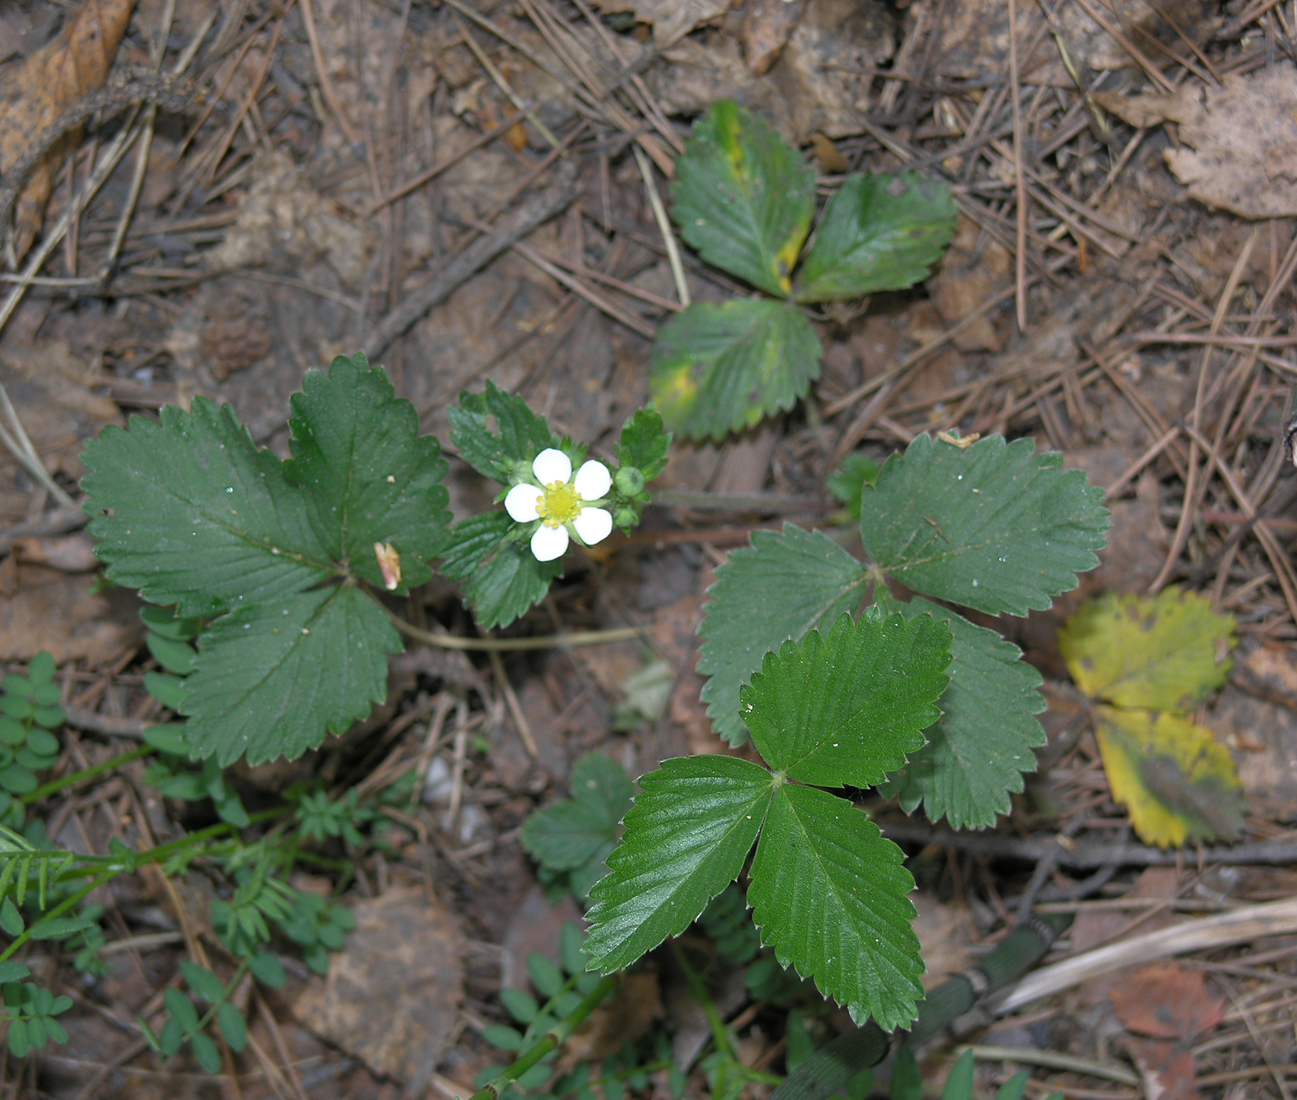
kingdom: Plantae
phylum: Tracheophyta
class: Magnoliopsida
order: Rosales
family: Rosaceae
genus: Fragaria
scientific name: Fragaria vesca
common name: Wild strawberry
